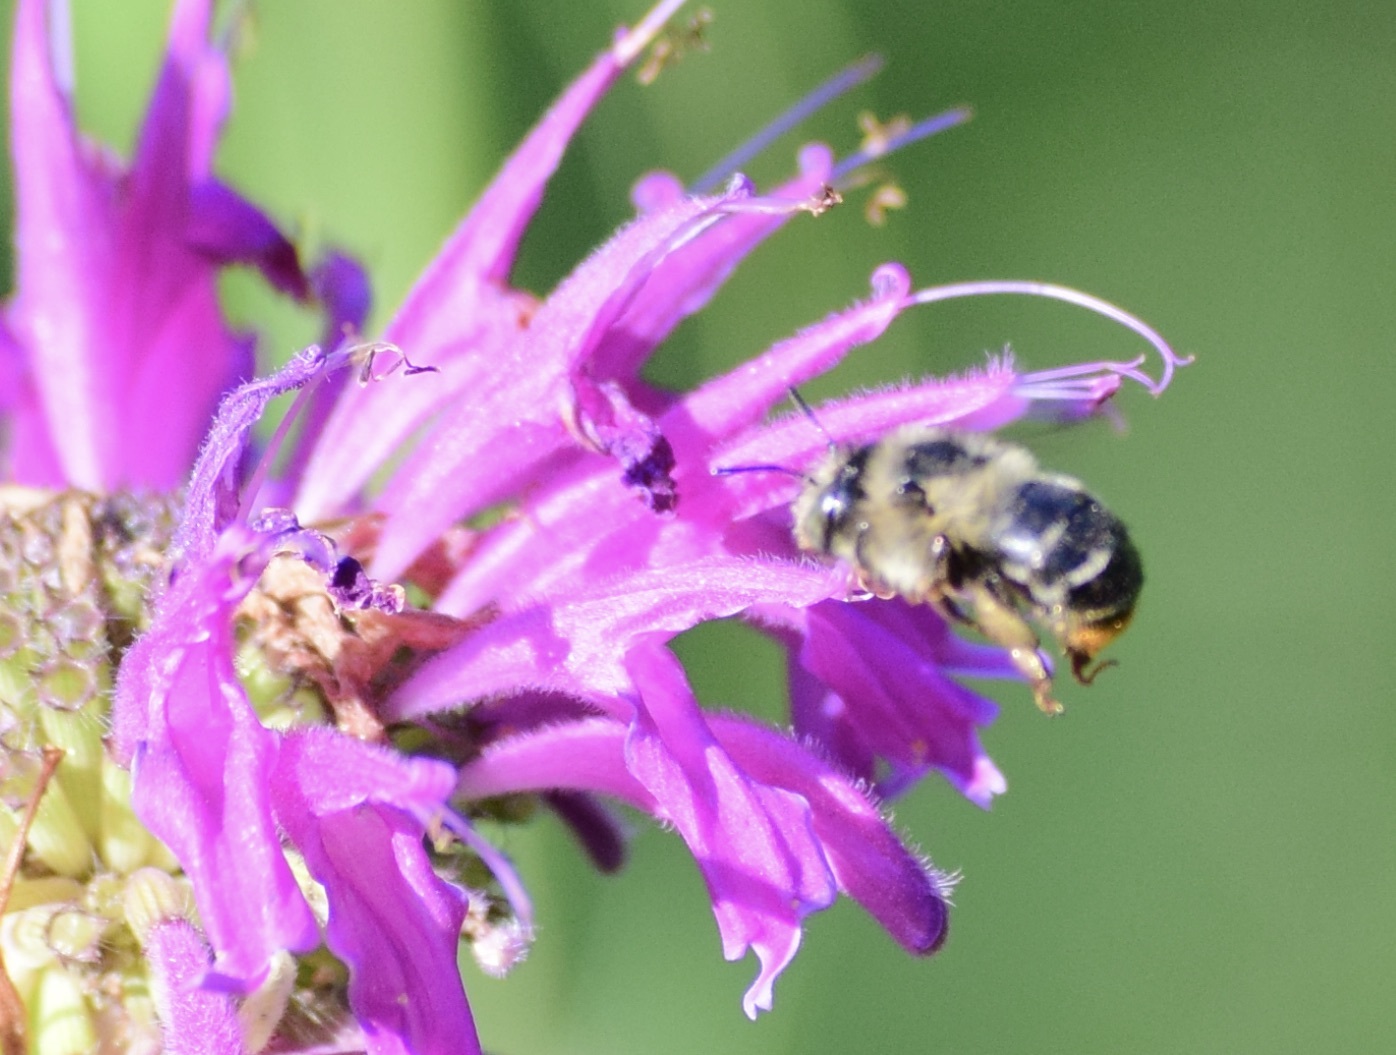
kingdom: Animalia
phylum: Arthropoda
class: Insecta
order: Hymenoptera
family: Apidae
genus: Anthophora
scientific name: Anthophora terminalis
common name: Orange-tipped wood-digger bee
